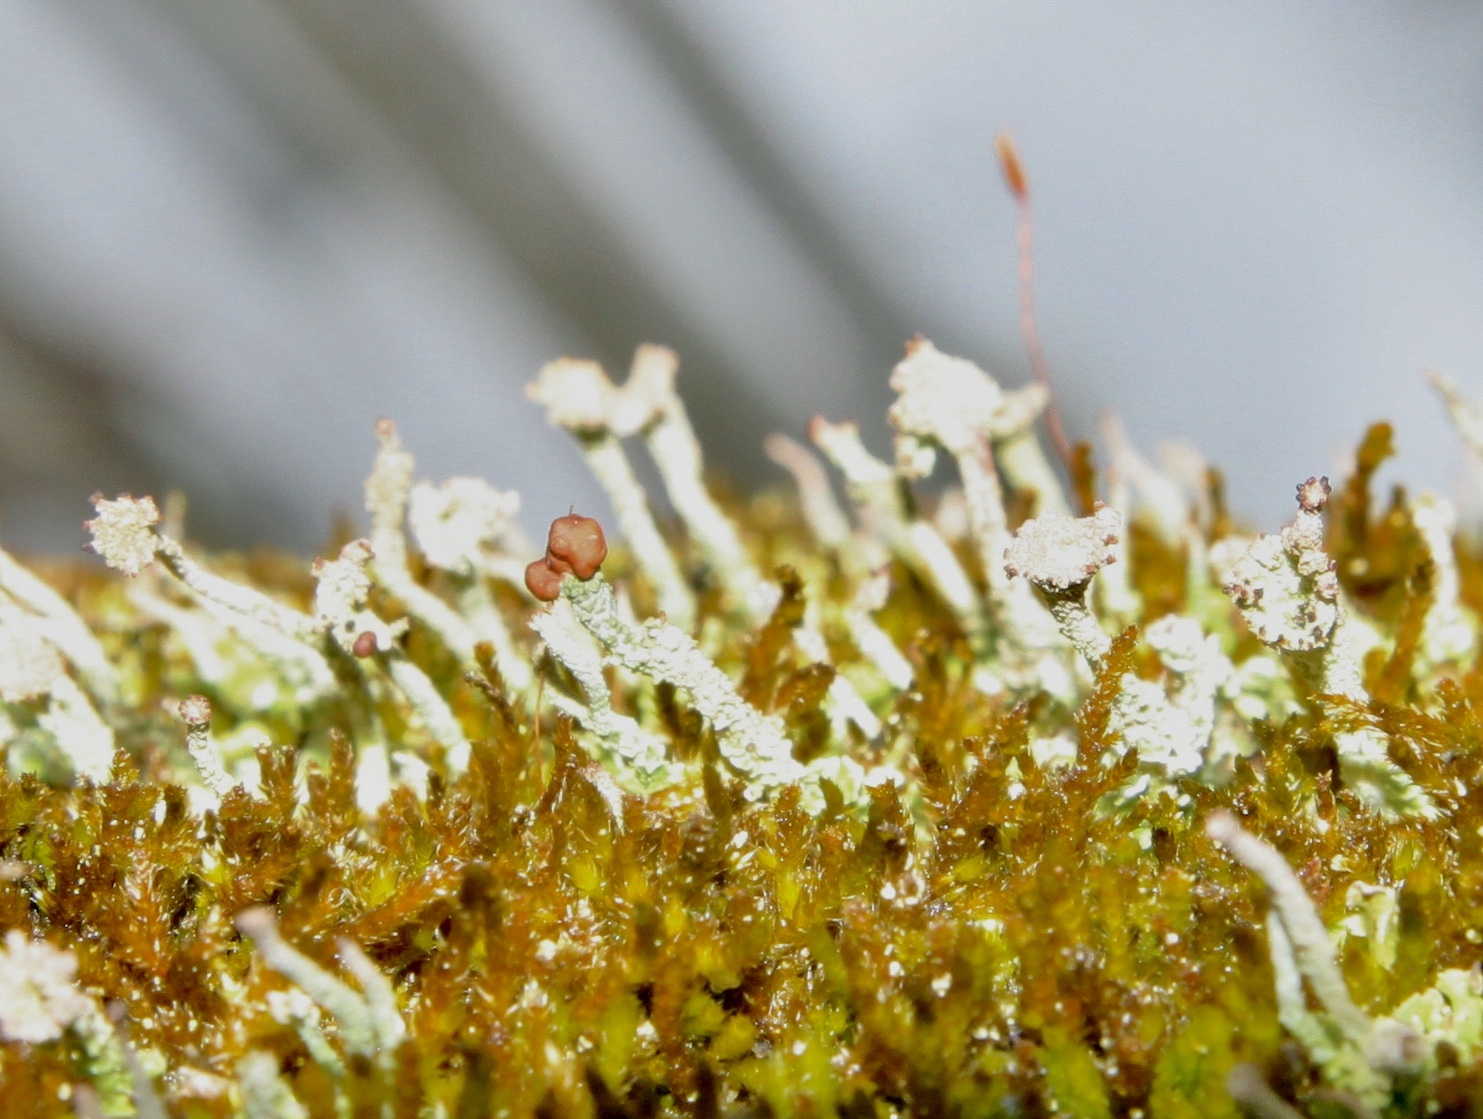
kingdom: Fungi
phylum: Ascomycota
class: Lecanoromycetes
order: Lecanorales
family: Cladoniaceae
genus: Cladonia
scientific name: Cladonia peziziformis
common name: Cup lichen
